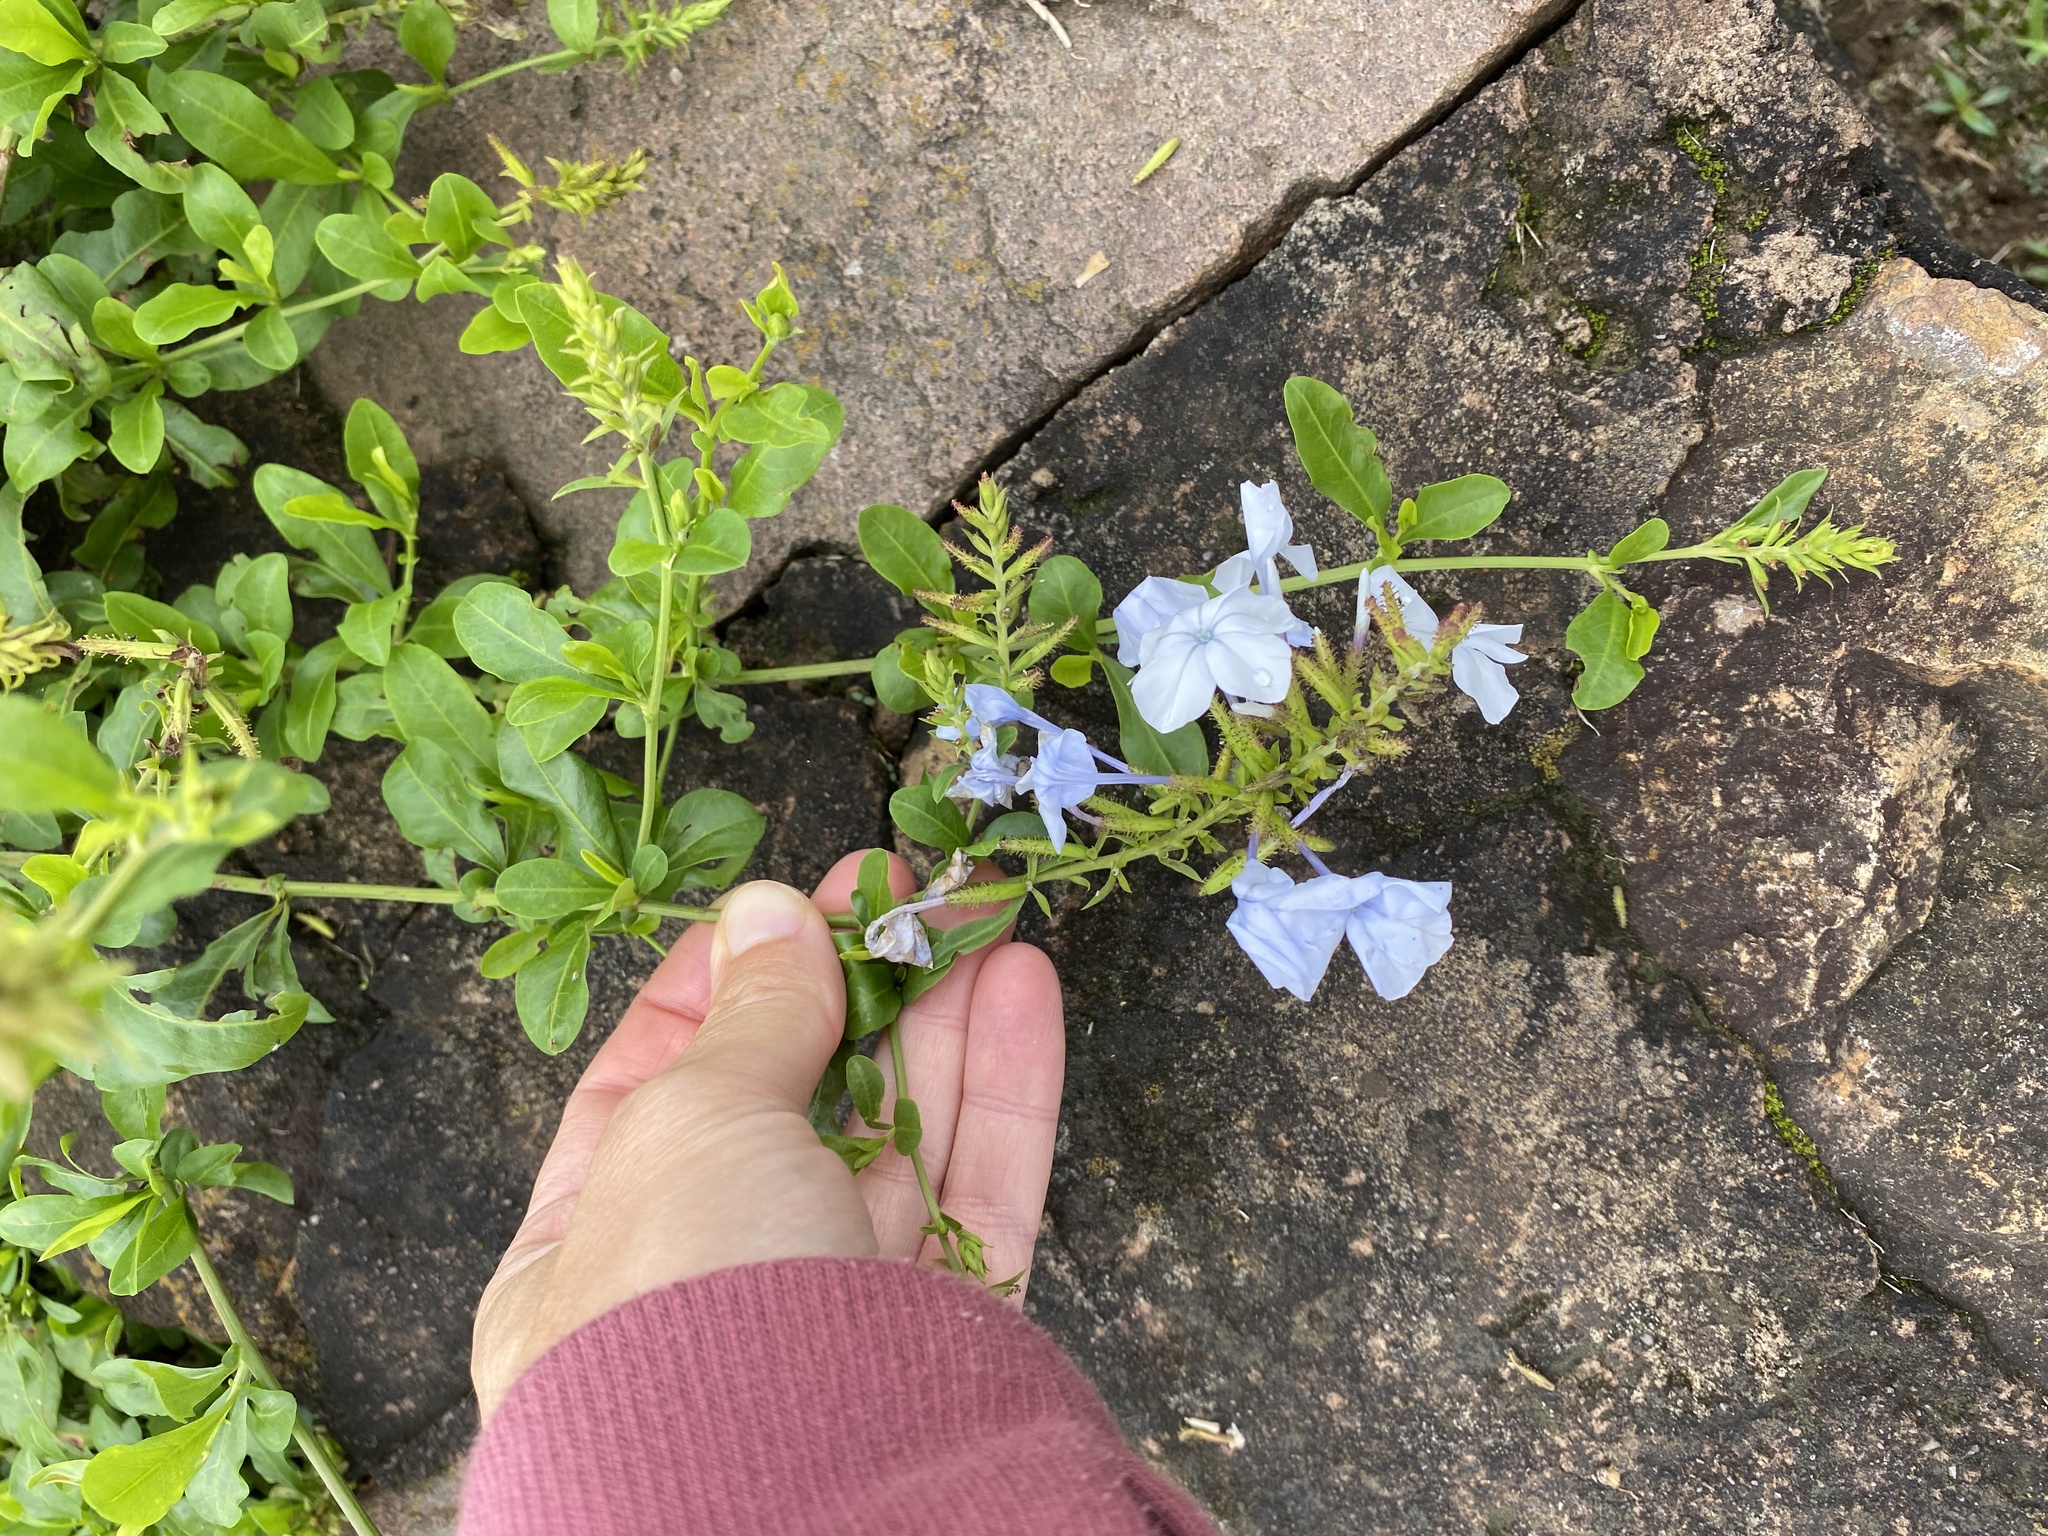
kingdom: Plantae
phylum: Tracheophyta
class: Magnoliopsida
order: Caryophyllales
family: Plumbaginaceae
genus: Plumbago
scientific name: Plumbago auriculata
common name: Cape leadwort
